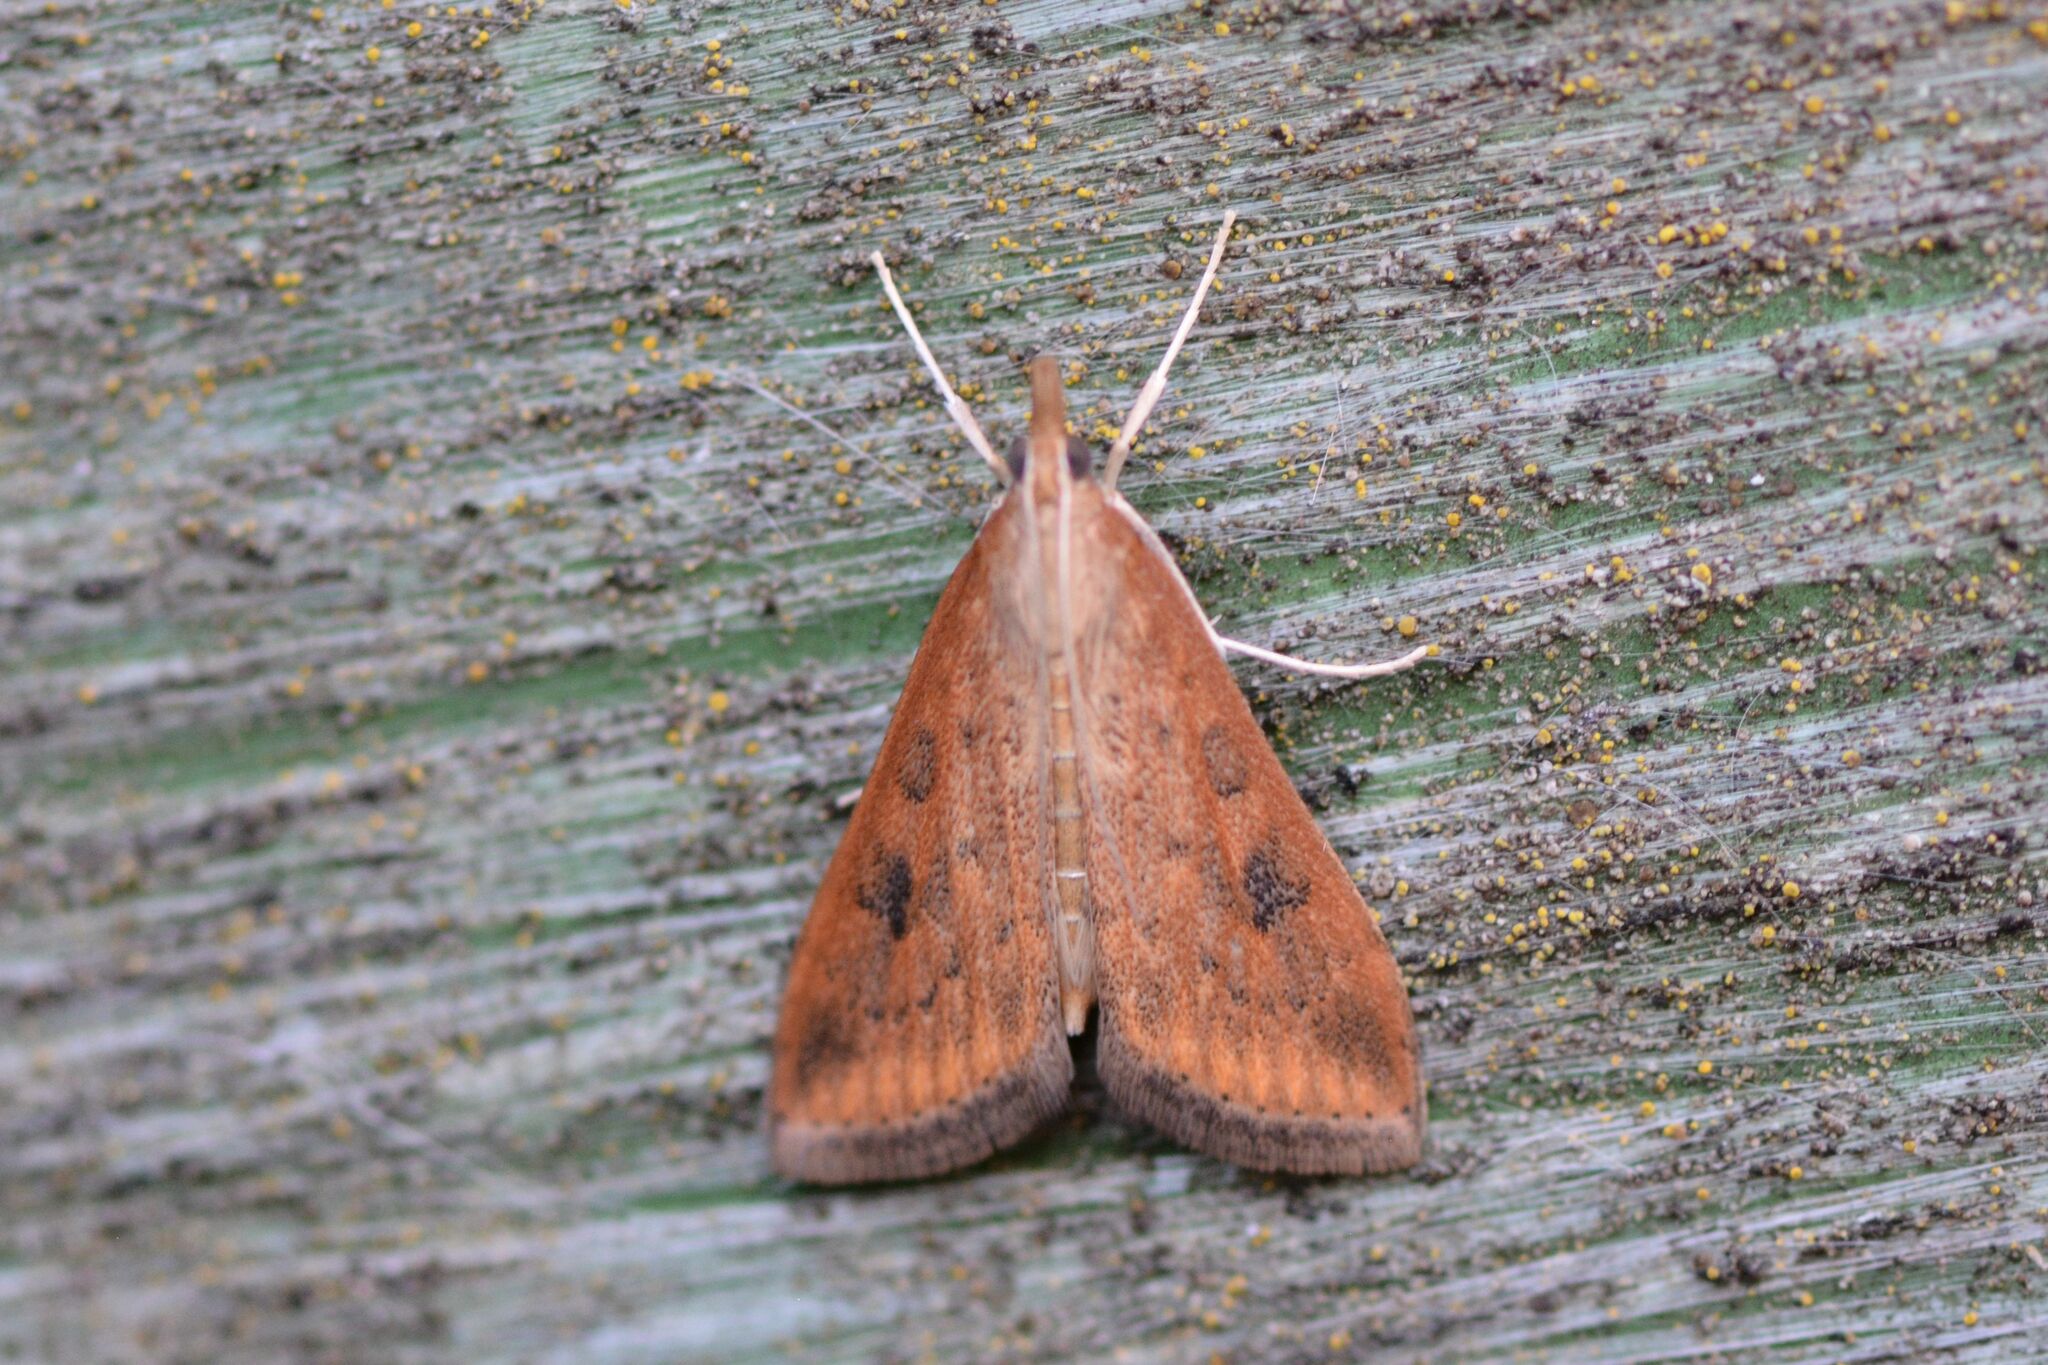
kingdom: Animalia
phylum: Arthropoda
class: Insecta
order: Lepidoptera
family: Crambidae
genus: Udea
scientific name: Udea ferrugalis
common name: Rusty dot
